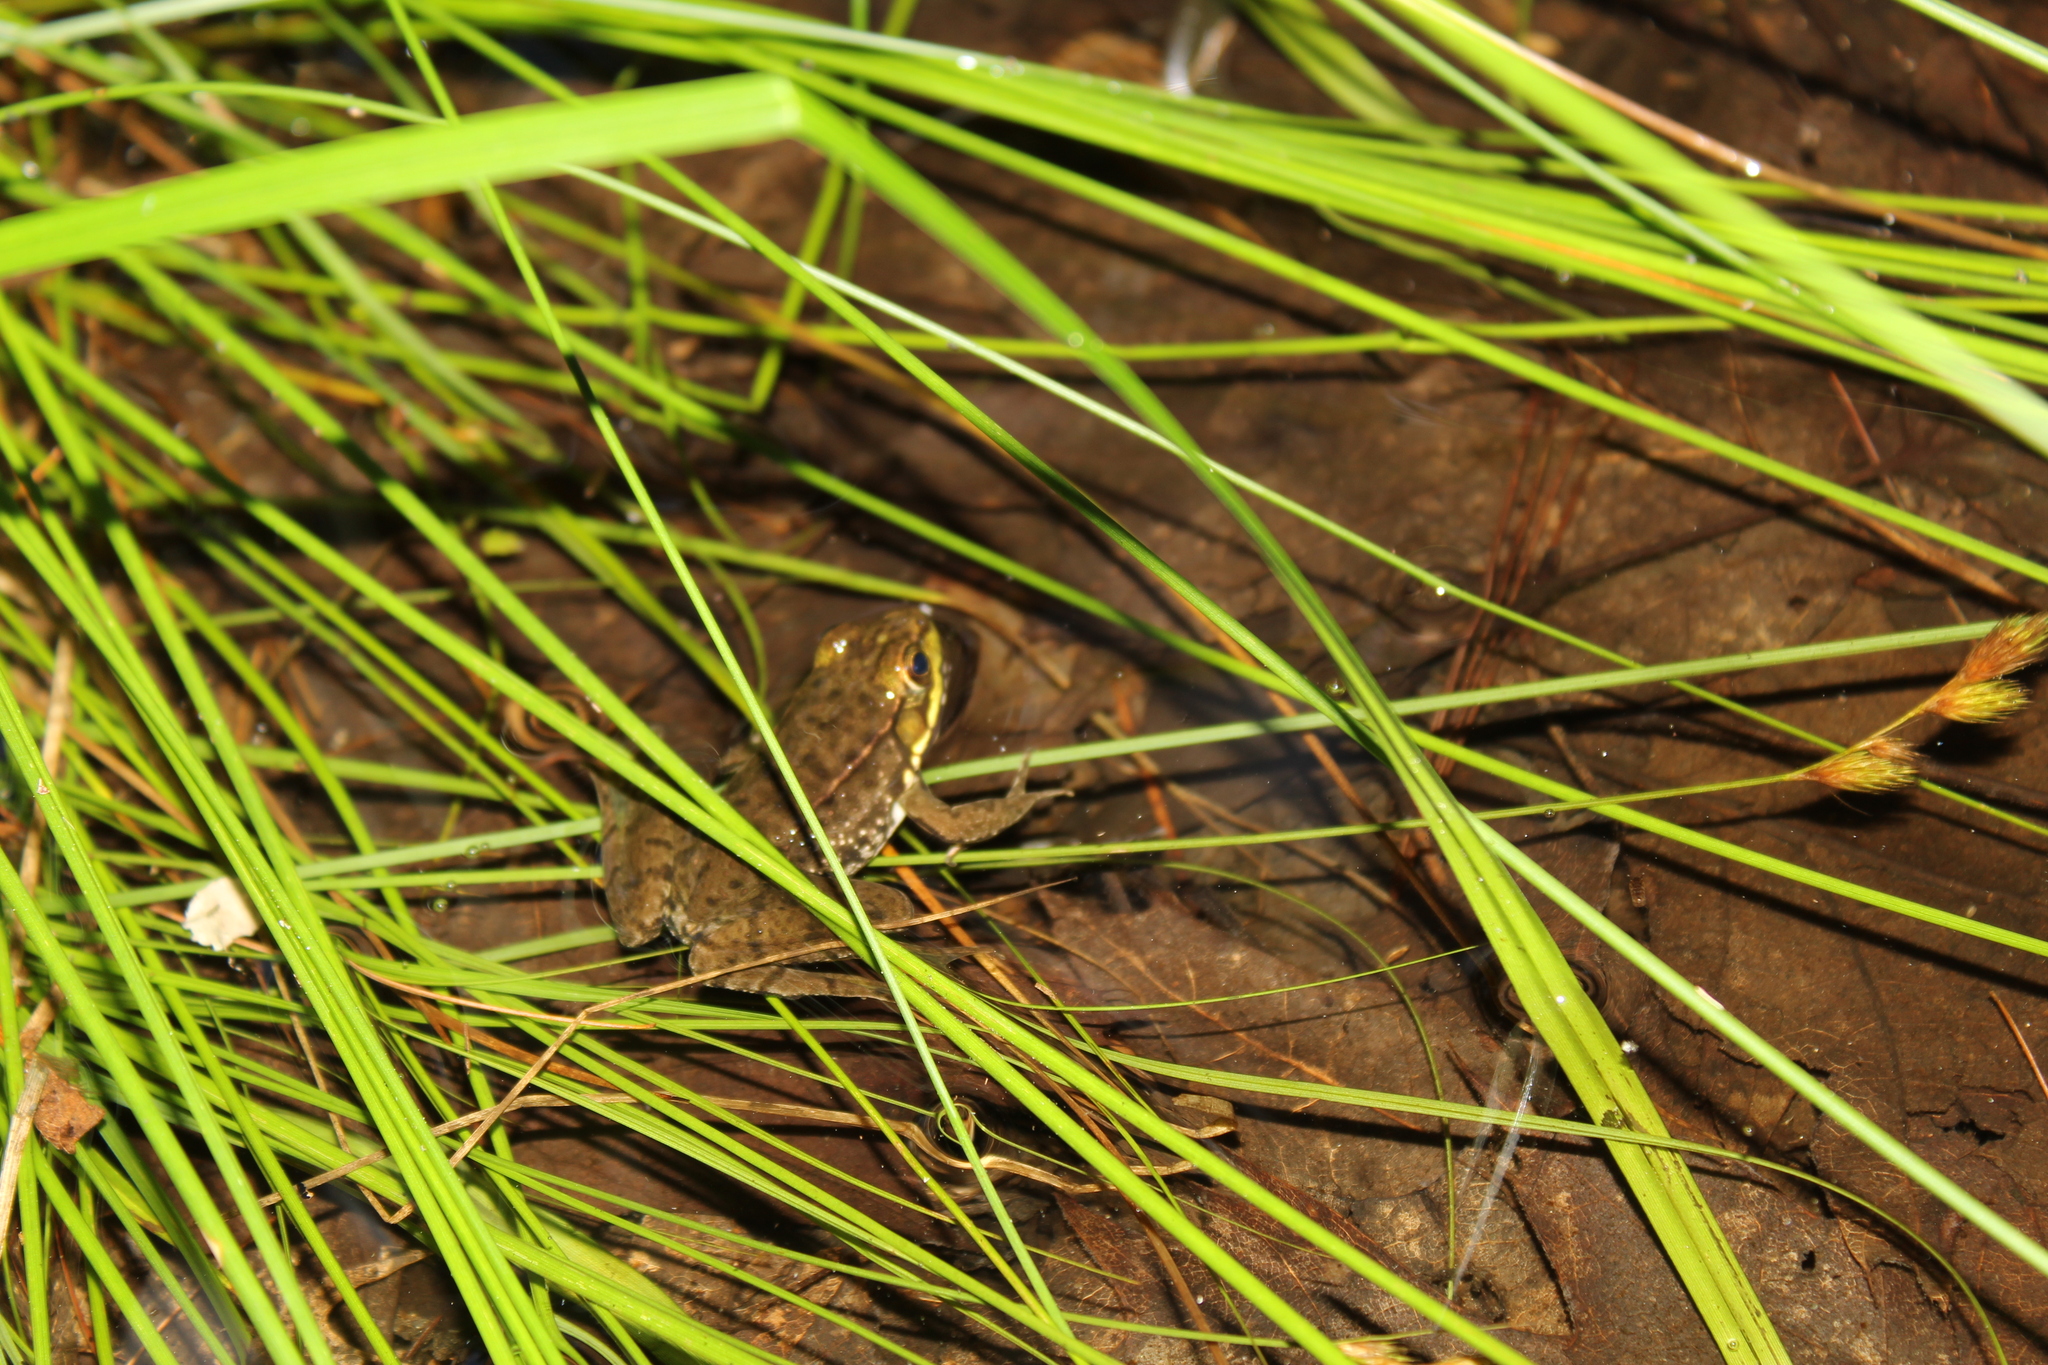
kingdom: Animalia
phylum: Chordata
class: Amphibia
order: Anura
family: Ranidae
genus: Lithobates
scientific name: Lithobates clamitans
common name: Green frog
